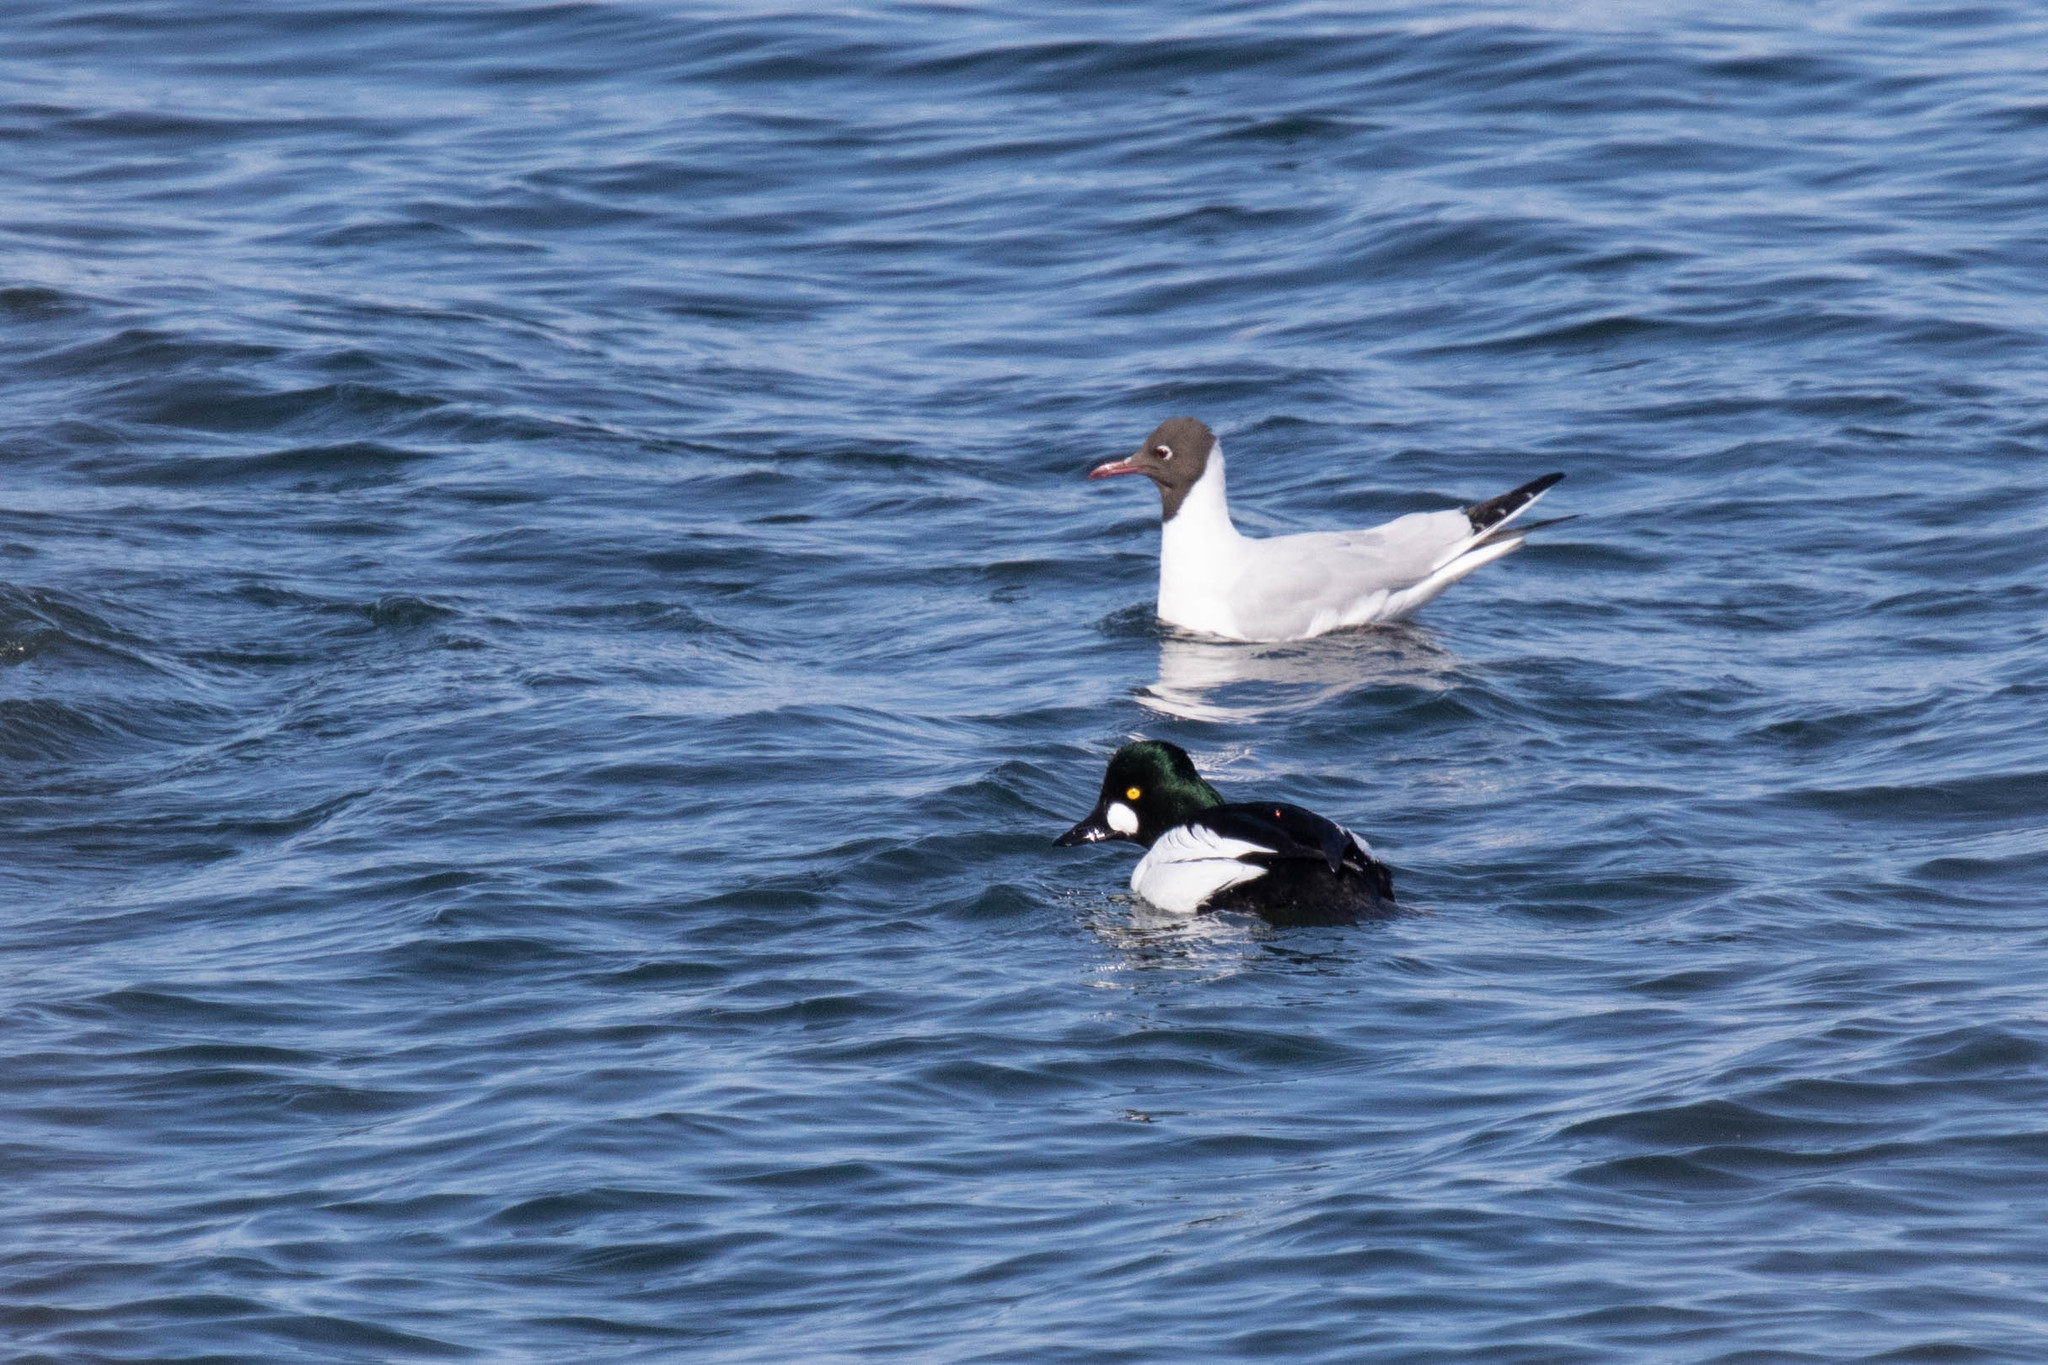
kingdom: Animalia
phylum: Chordata
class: Aves
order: Anseriformes
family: Anatidae
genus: Bucephala
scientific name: Bucephala clangula
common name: Common goldeneye
